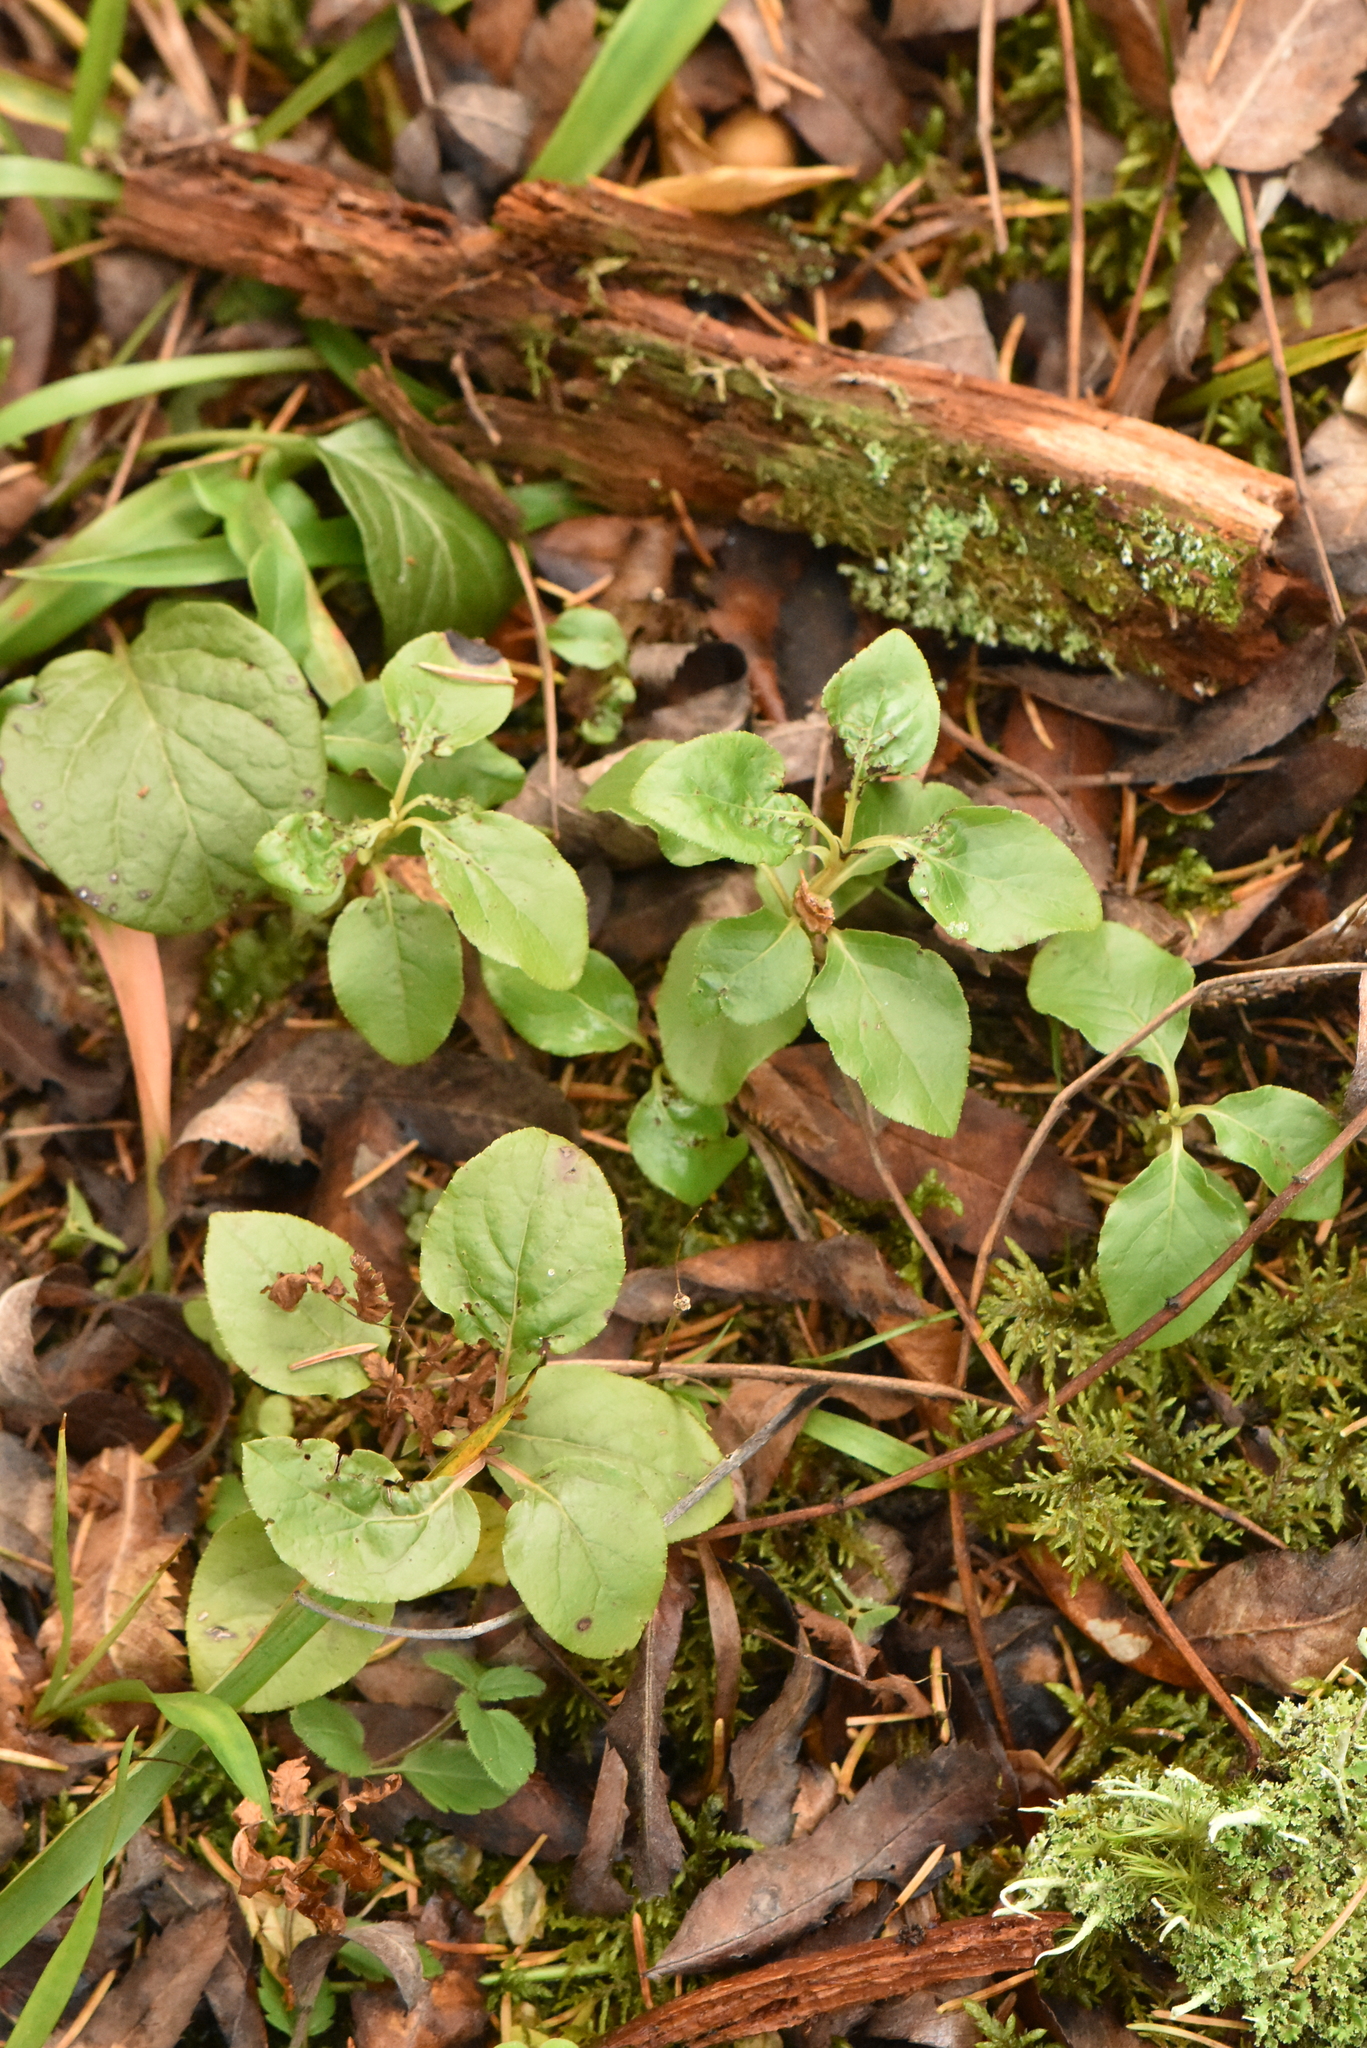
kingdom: Plantae
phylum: Tracheophyta
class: Magnoliopsida
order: Ericales
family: Ericaceae
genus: Orthilia
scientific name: Orthilia secunda
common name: One-sided orthilia
